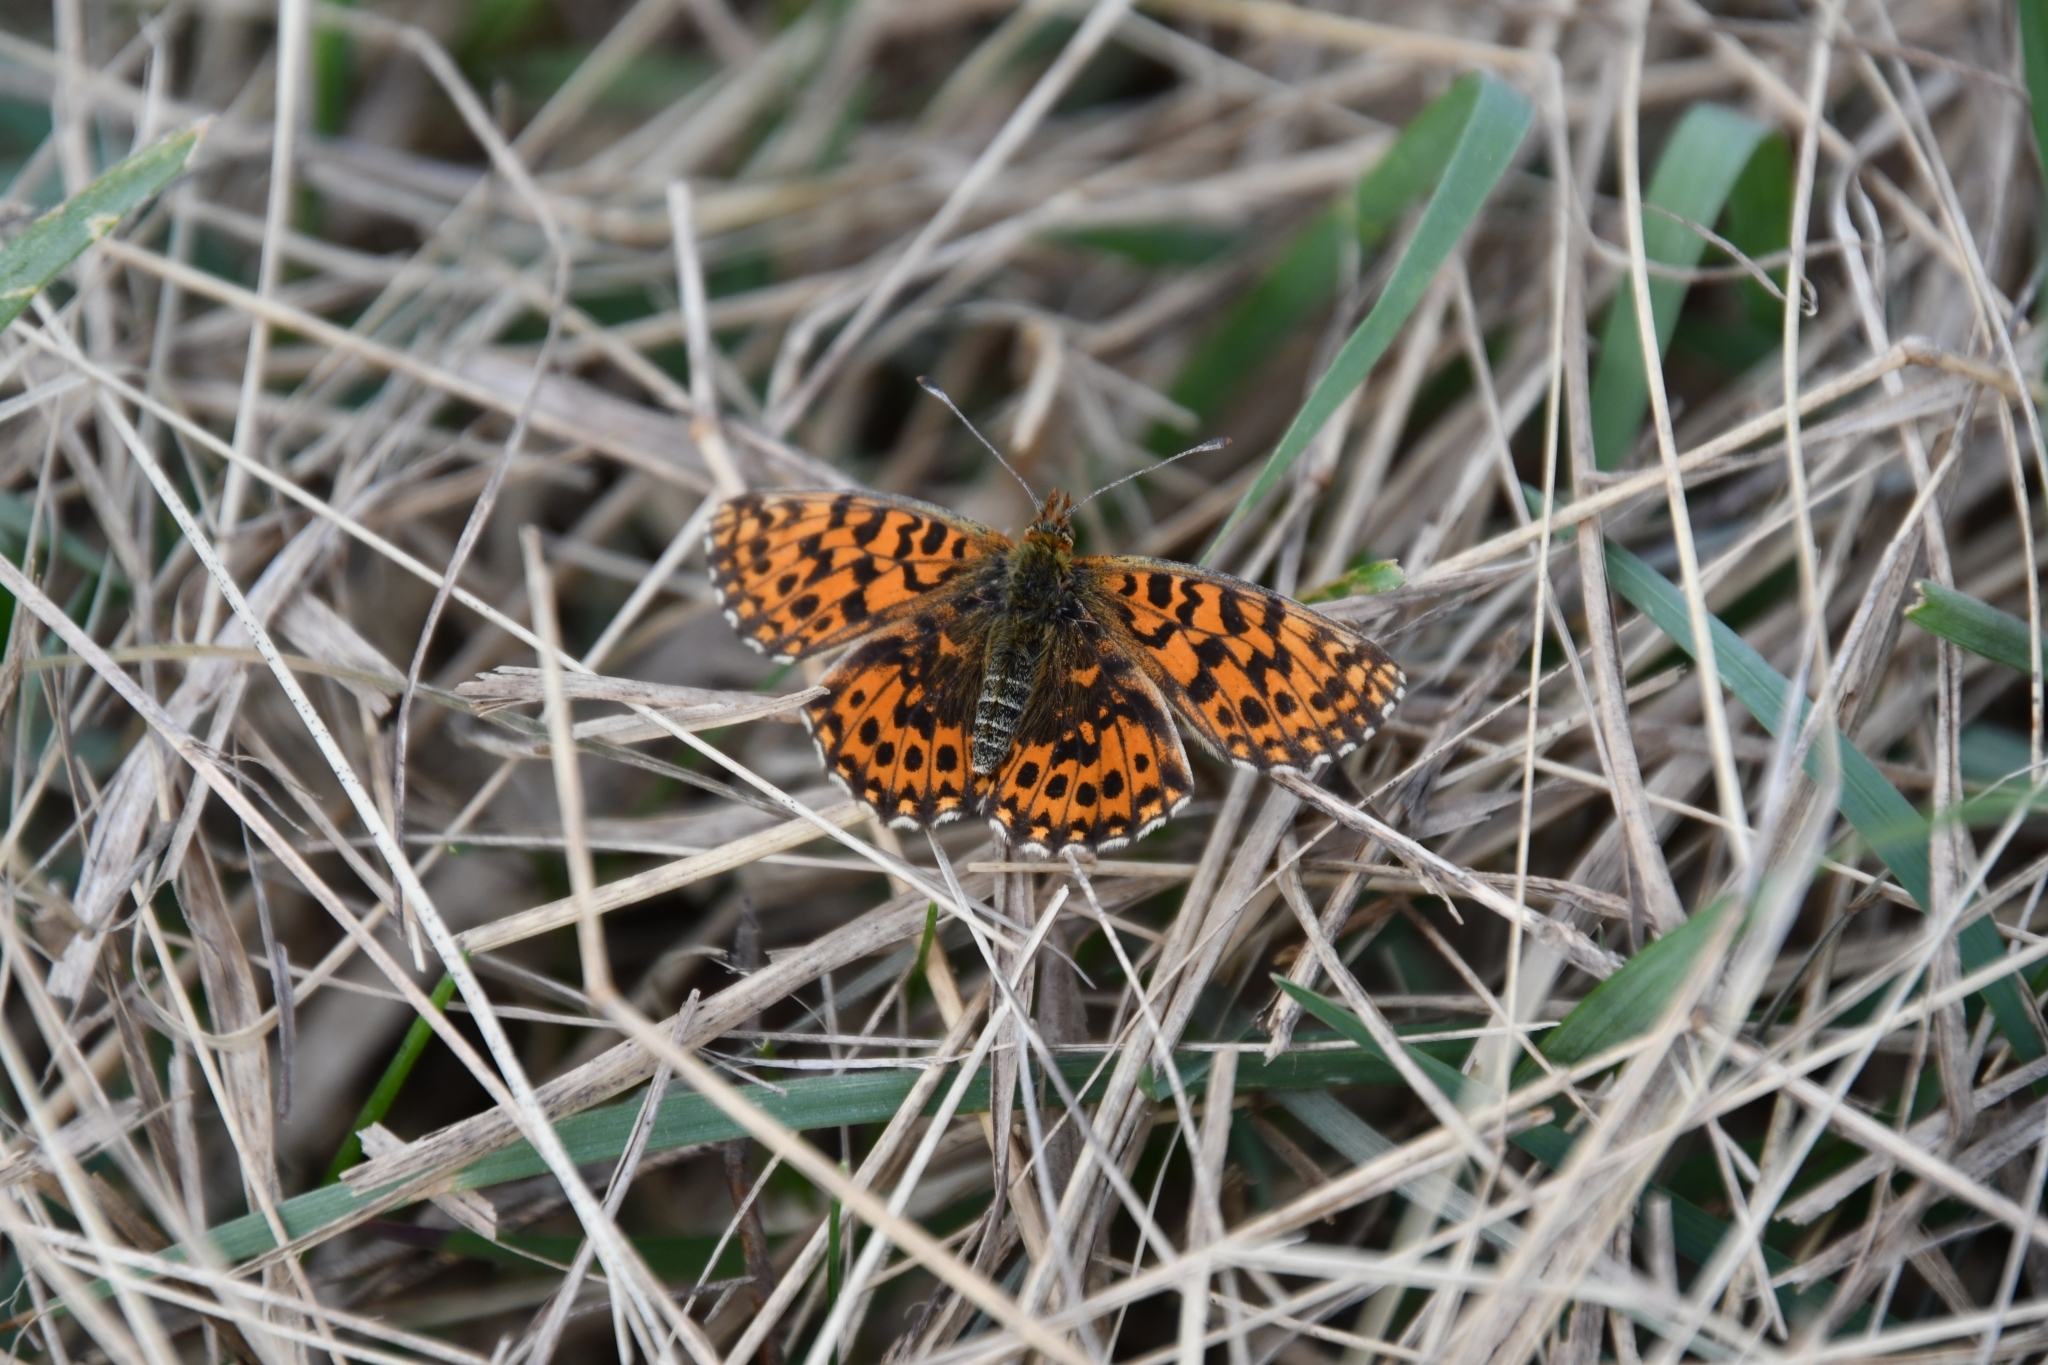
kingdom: Animalia
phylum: Arthropoda
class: Insecta
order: Lepidoptera
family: Nymphalidae
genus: Boloria
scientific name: Boloria dia
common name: Weaver's fritillary
